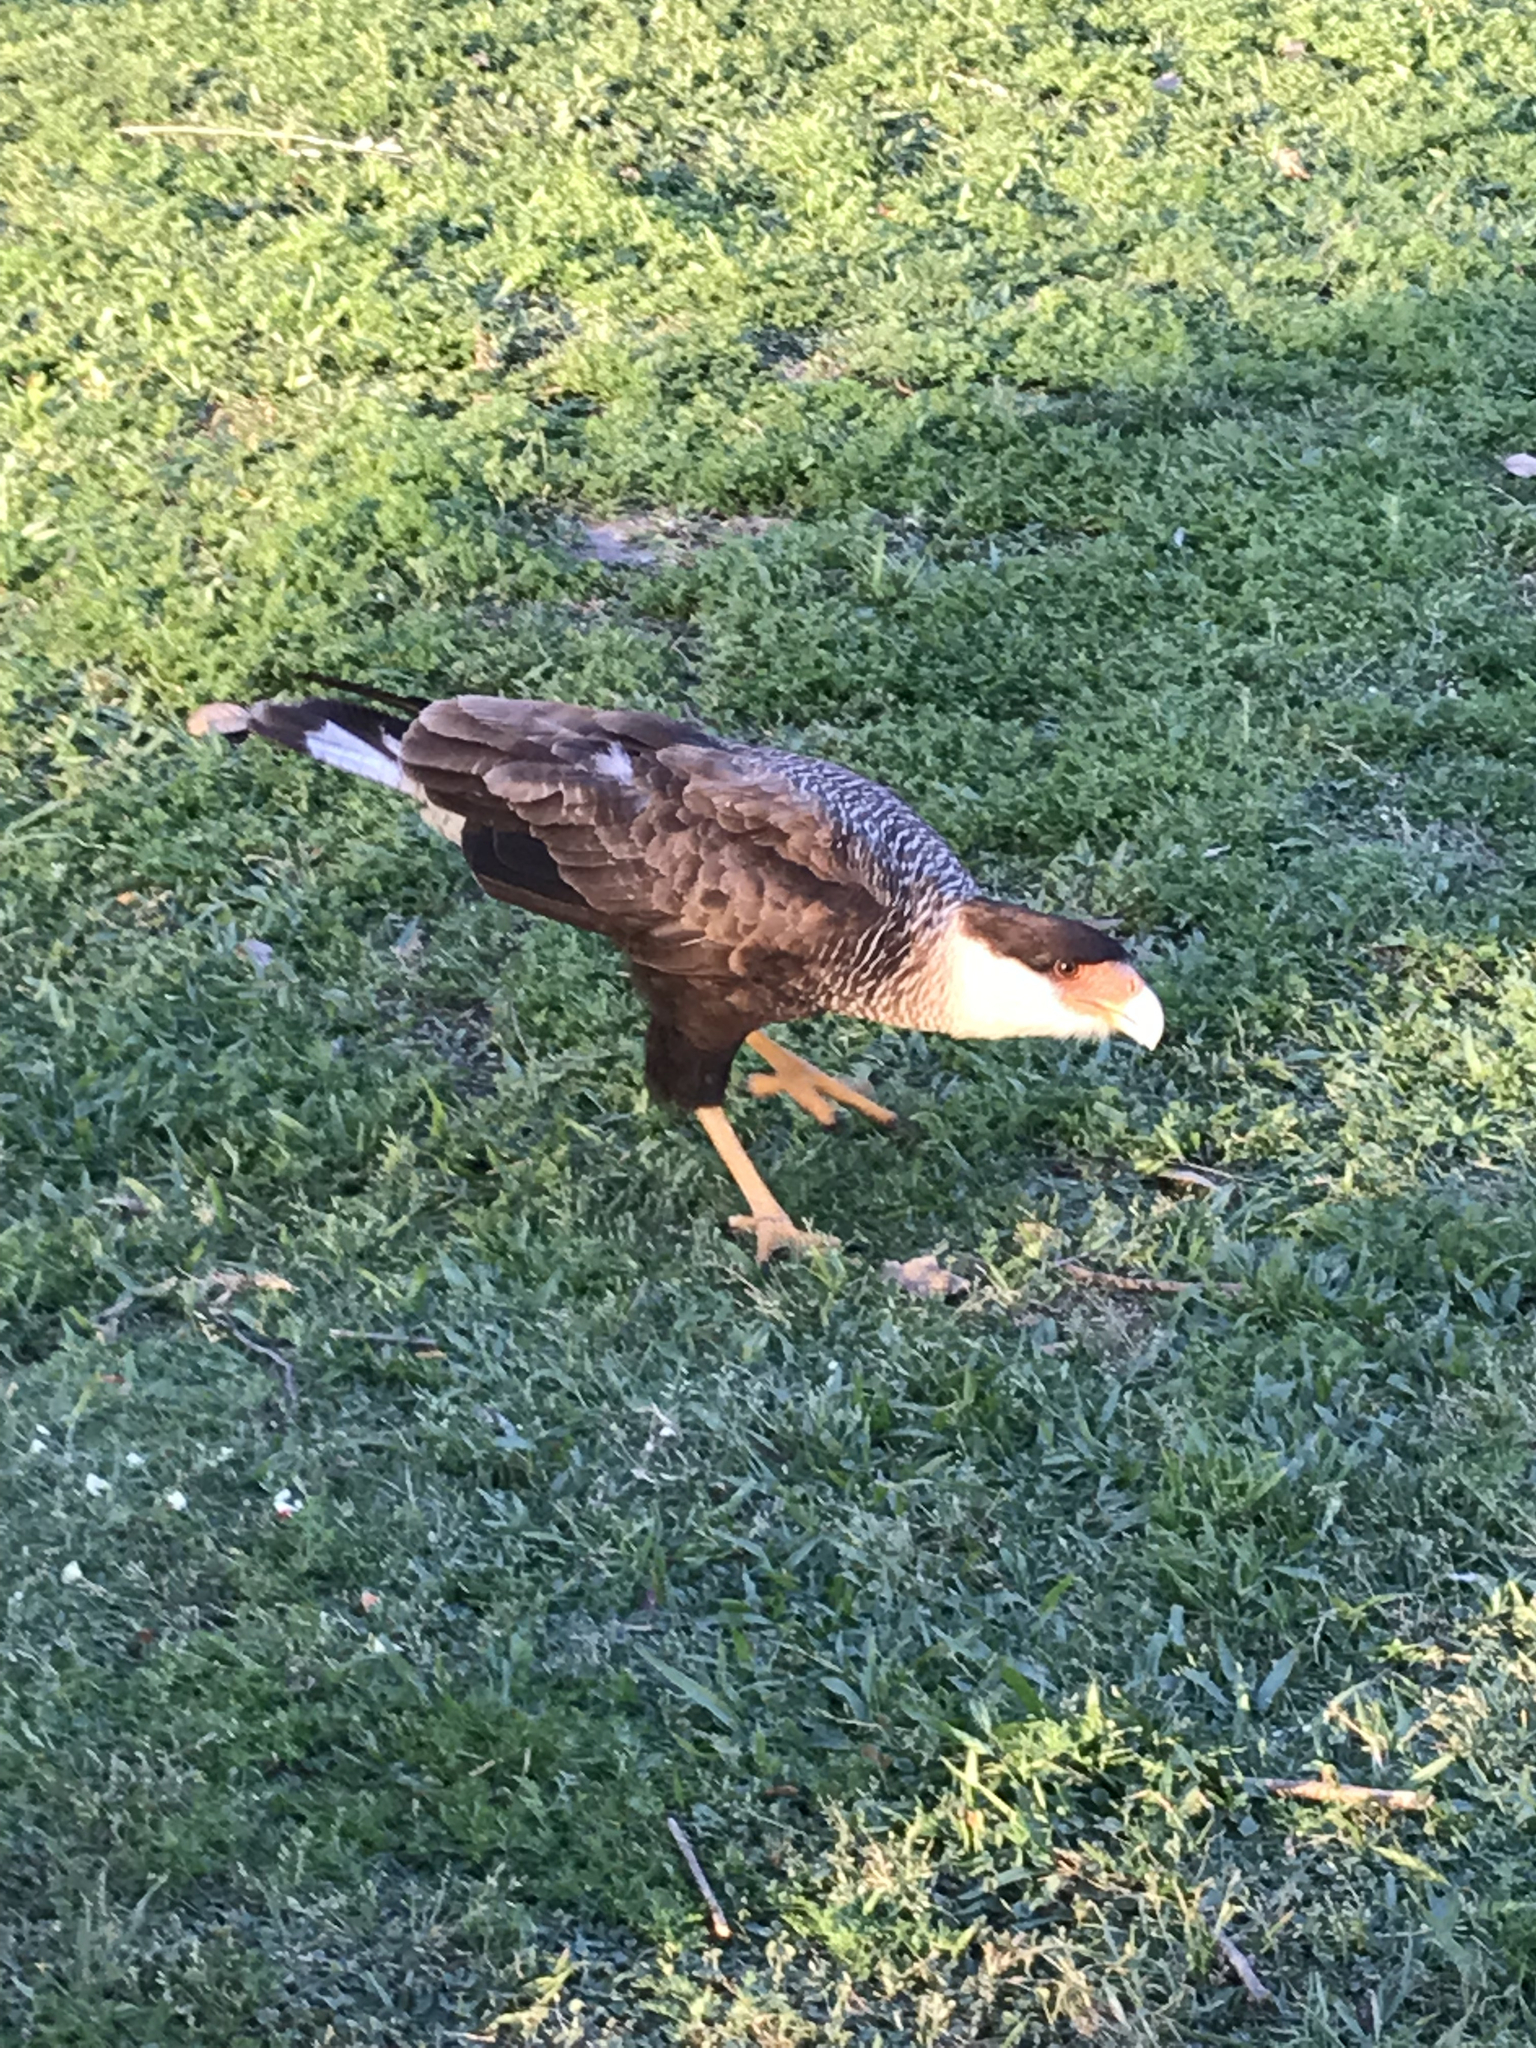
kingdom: Animalia
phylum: Chordata
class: Aves
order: Falconiformes
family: Falconidae
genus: Caracara
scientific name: Caracara plancus
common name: Southern caracara
